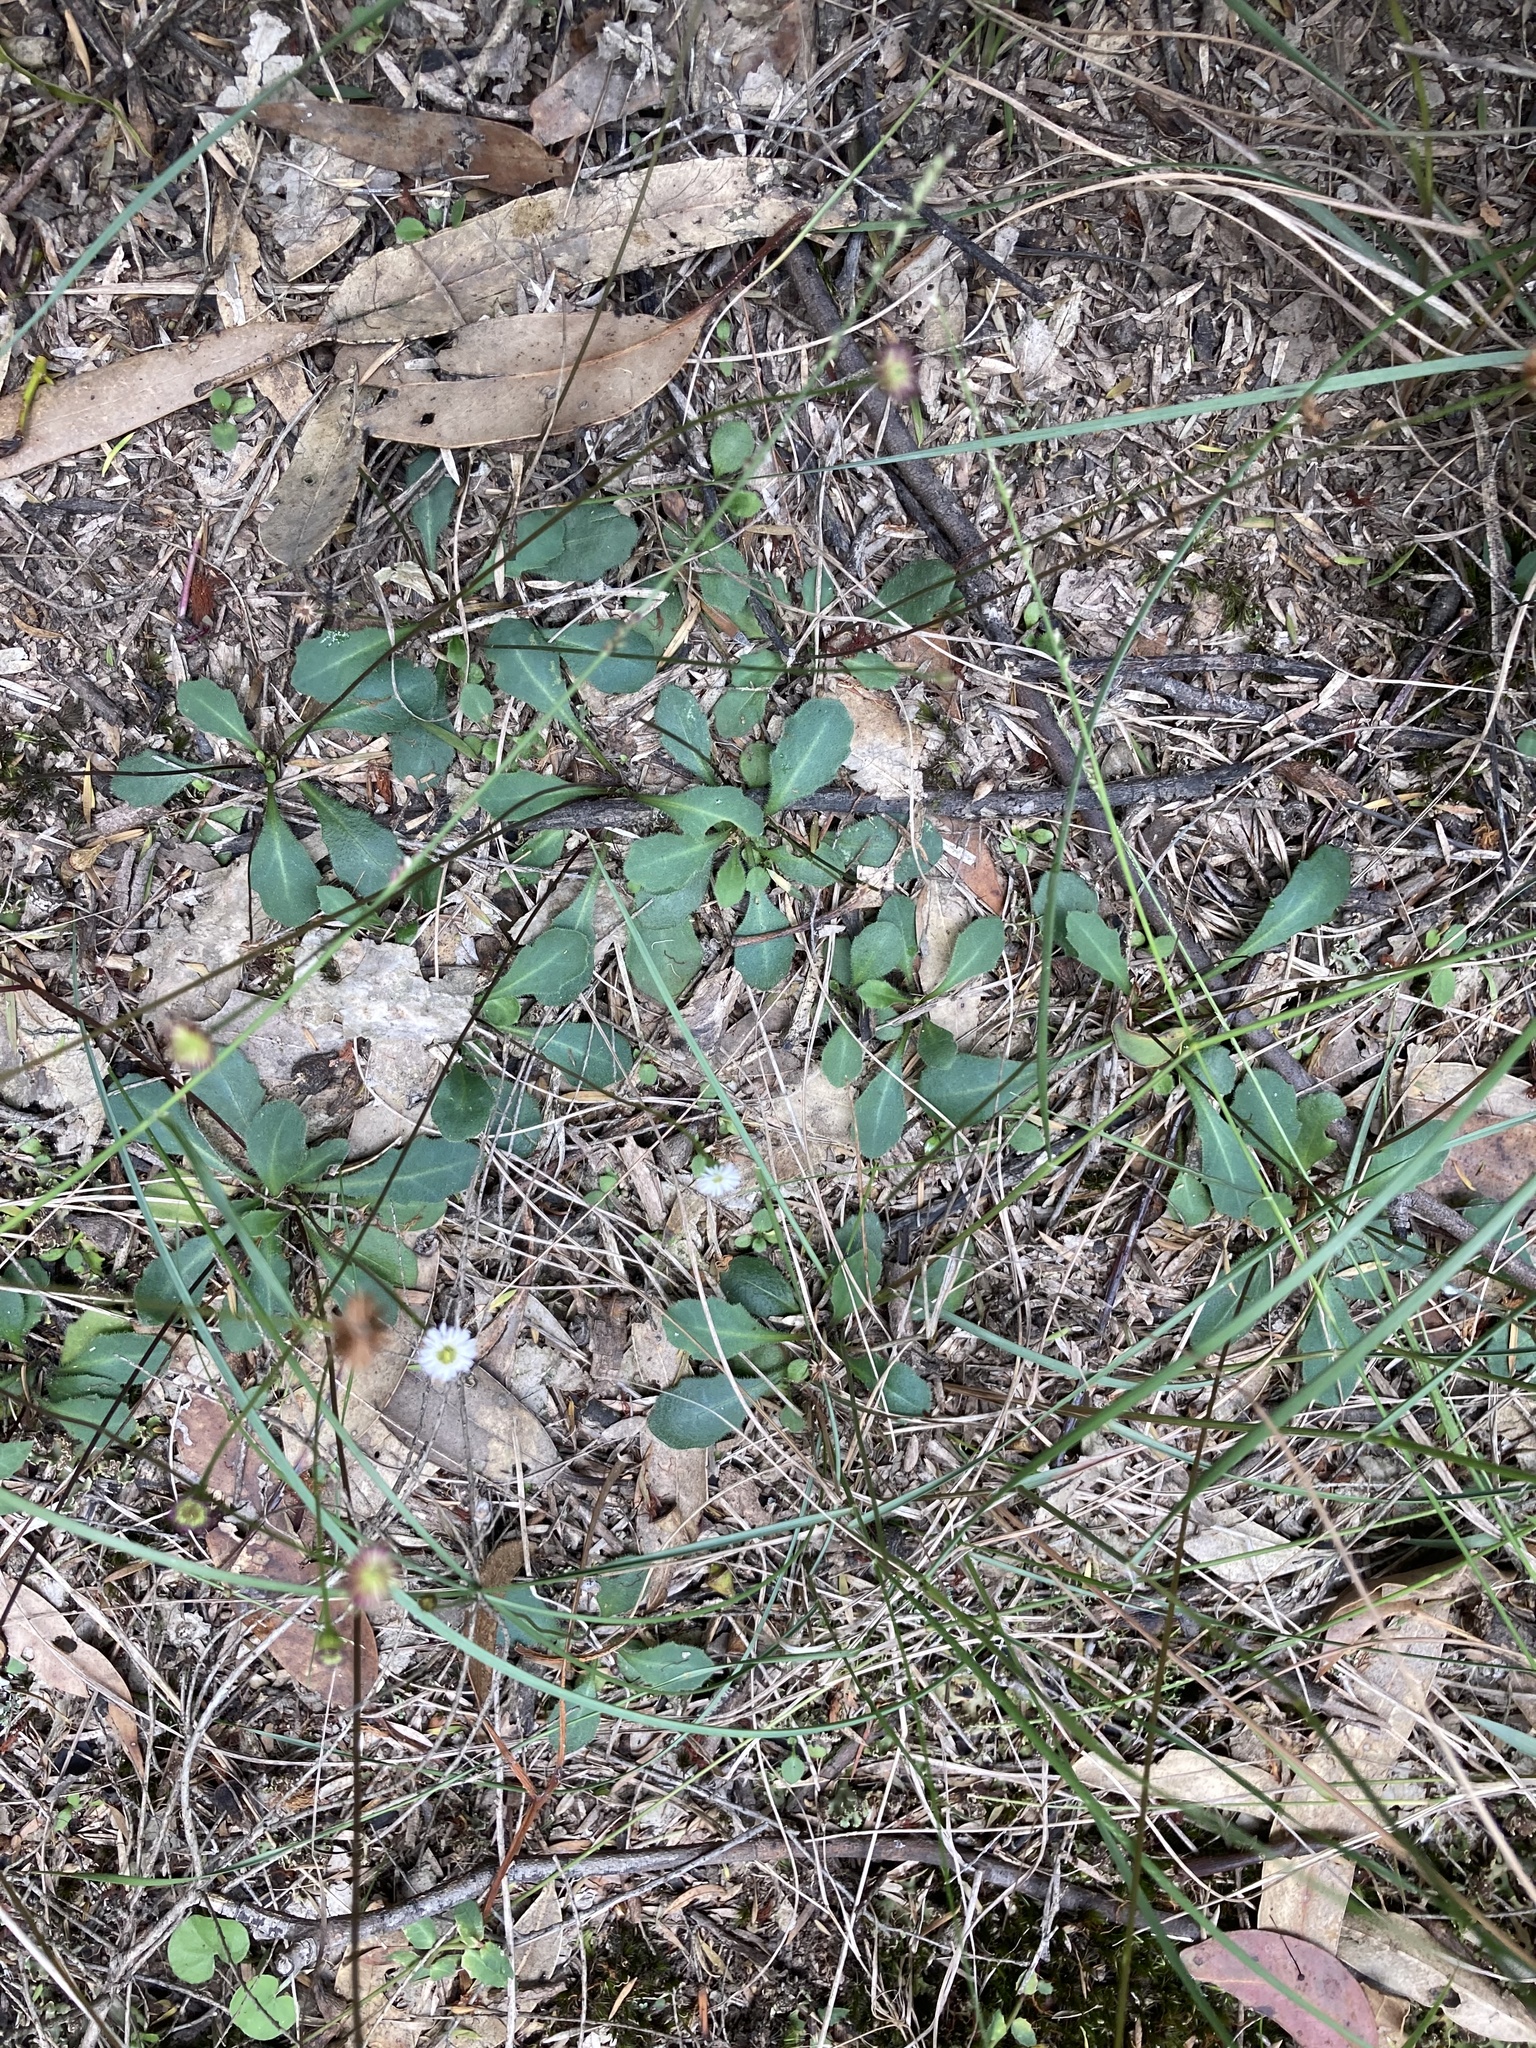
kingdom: Plantae
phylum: Tracheophyta
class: Magnoliopsida
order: Asterales
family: Asteraceae
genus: Lagenophora
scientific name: Lagenophora sublyrata ter
